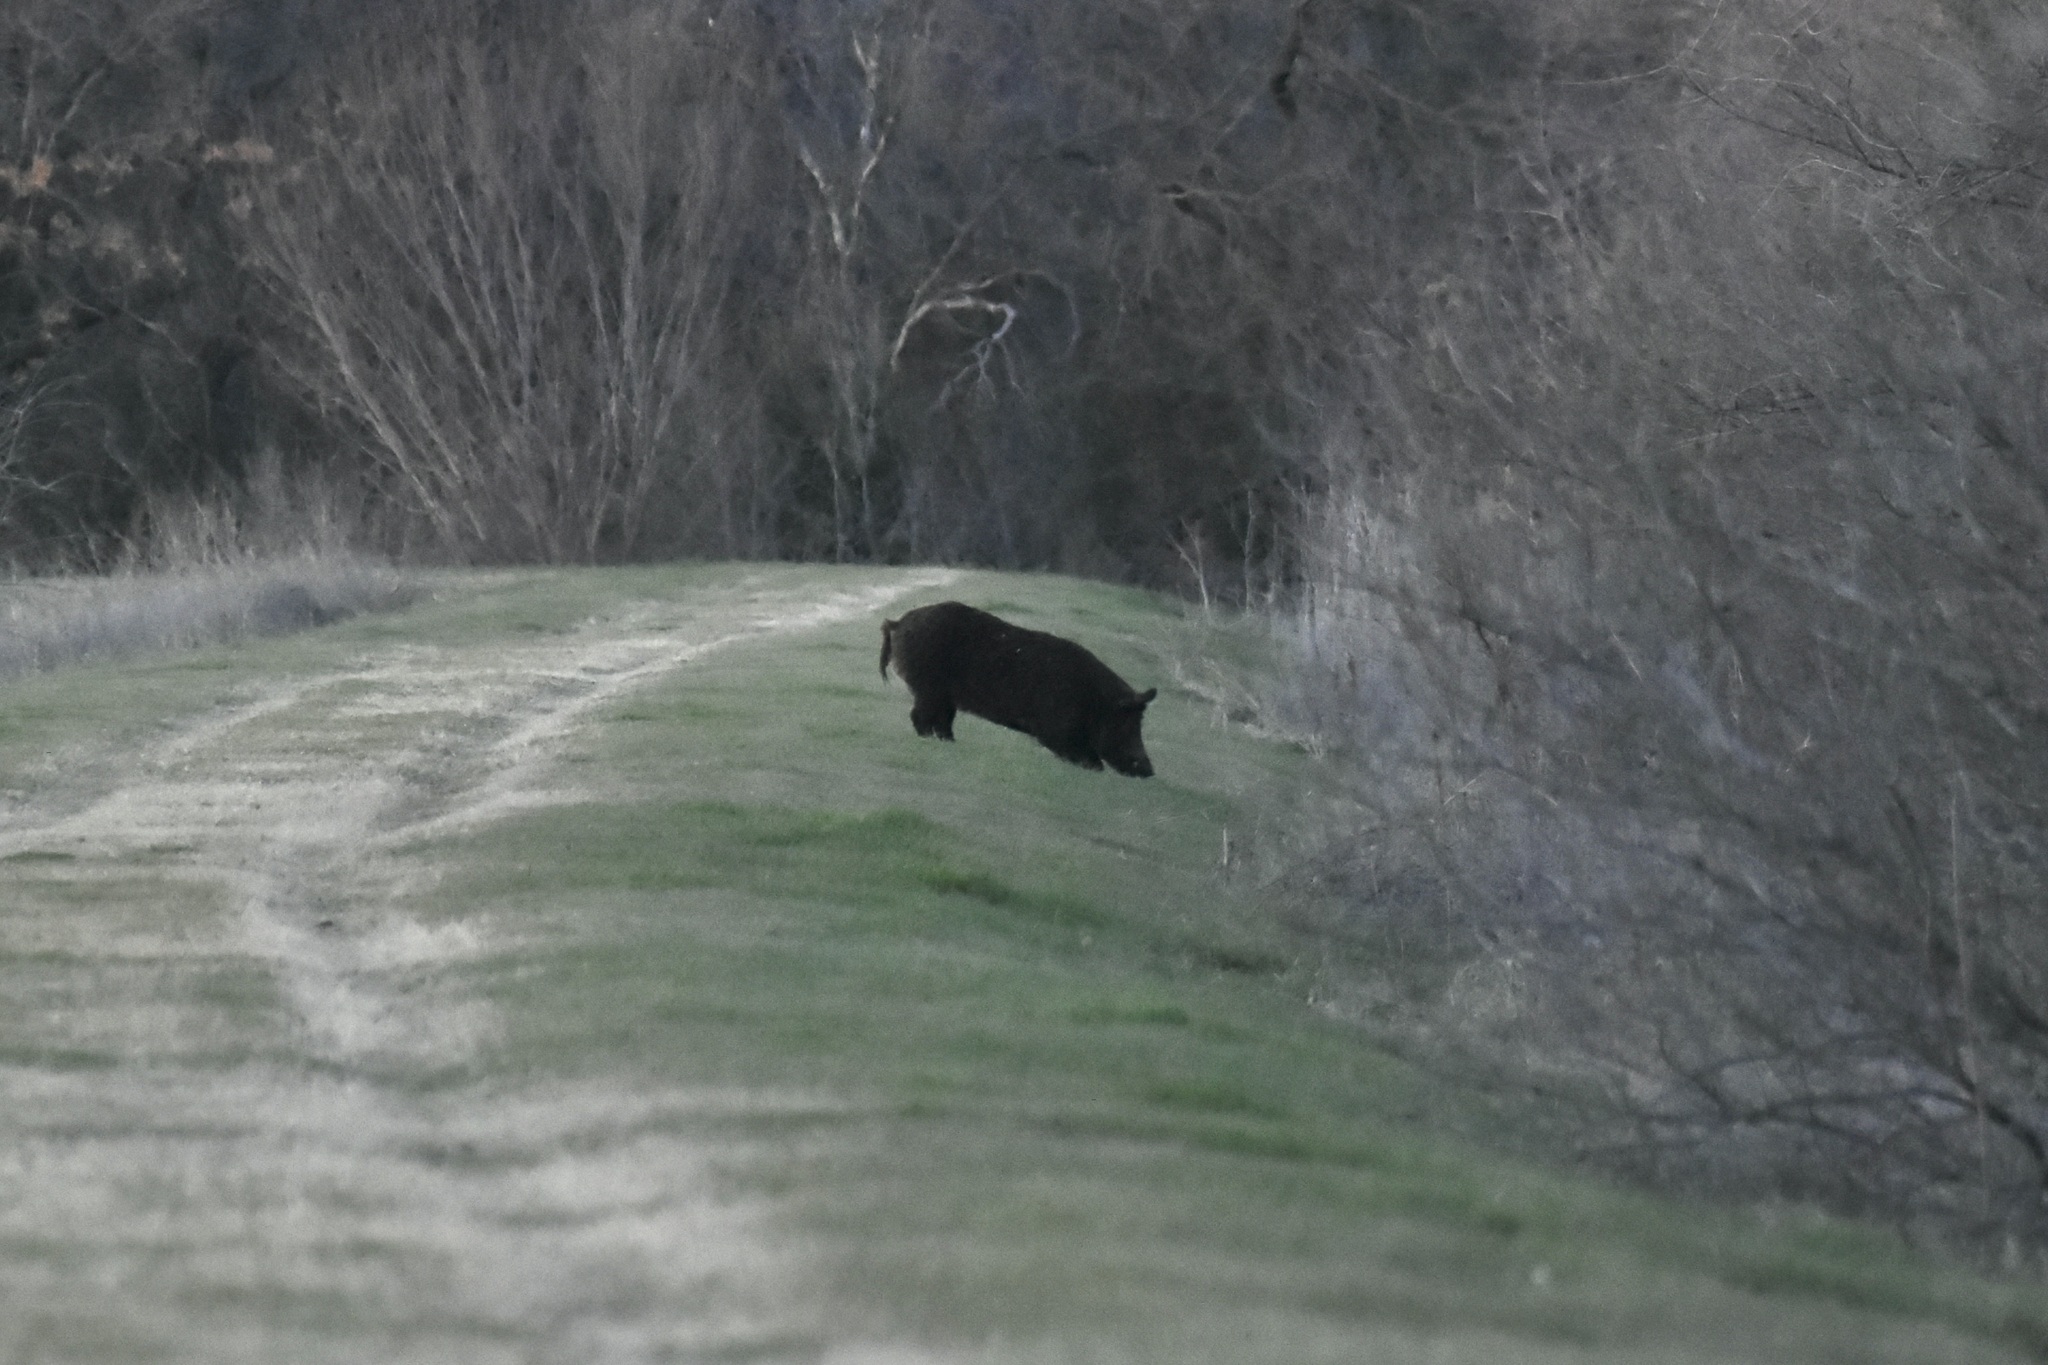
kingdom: Animalia
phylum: Chordata
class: Mammalia
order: Artiodactyla
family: Suidae
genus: Sus
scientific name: Sus scrofa
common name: Wild boar
